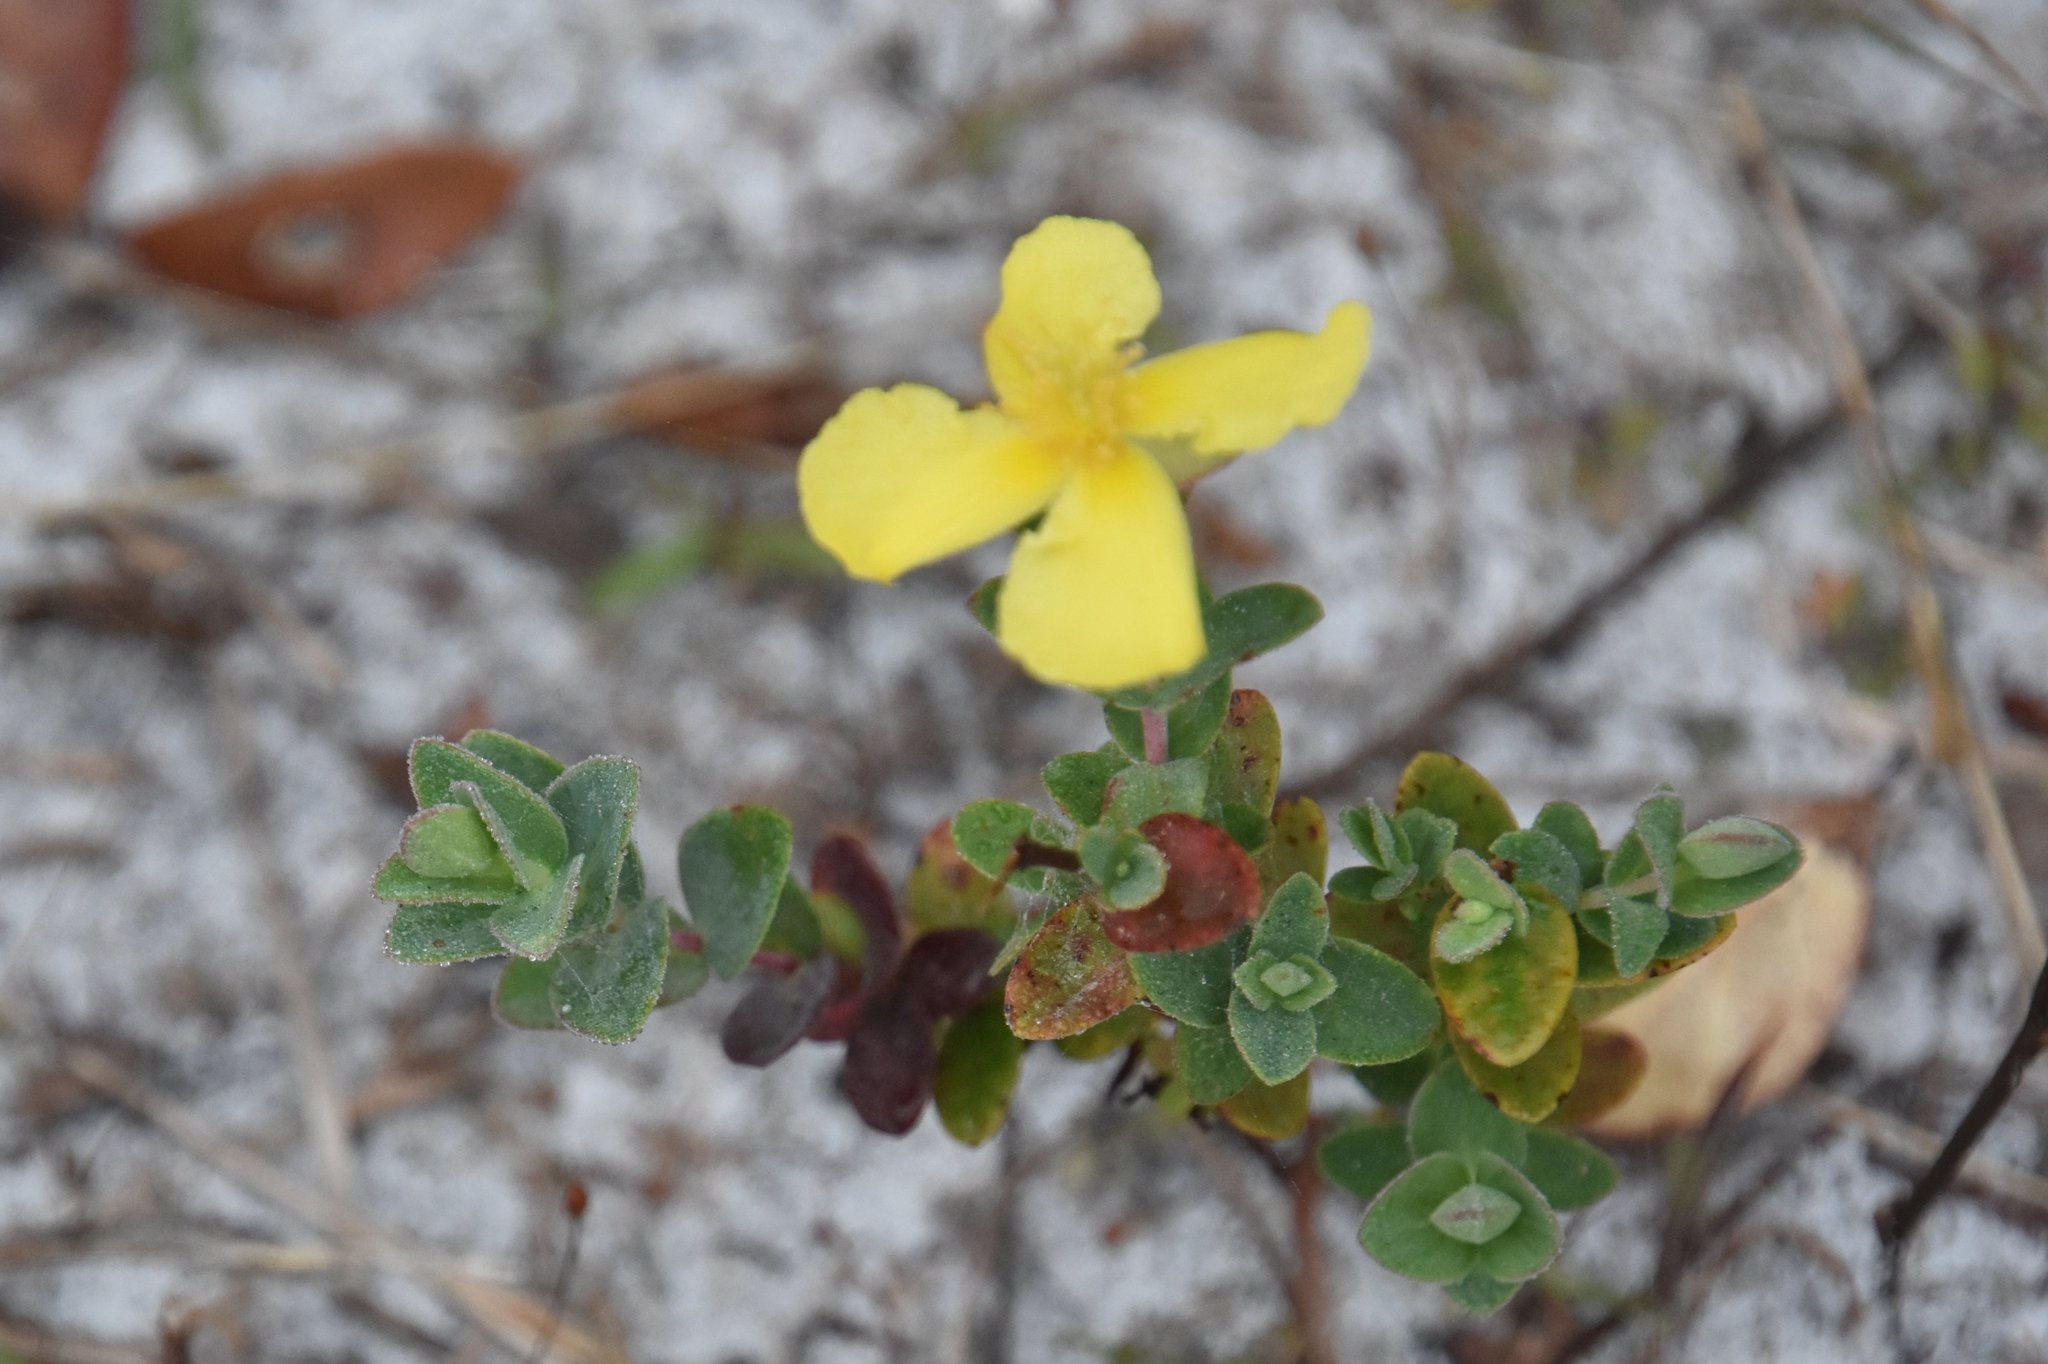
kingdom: Plantae
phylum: Tracheophyta
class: Magnoliopsida
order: Malpighiales
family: Hypericaceae
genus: Hypericum
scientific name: Hypericum tetrapetalum
